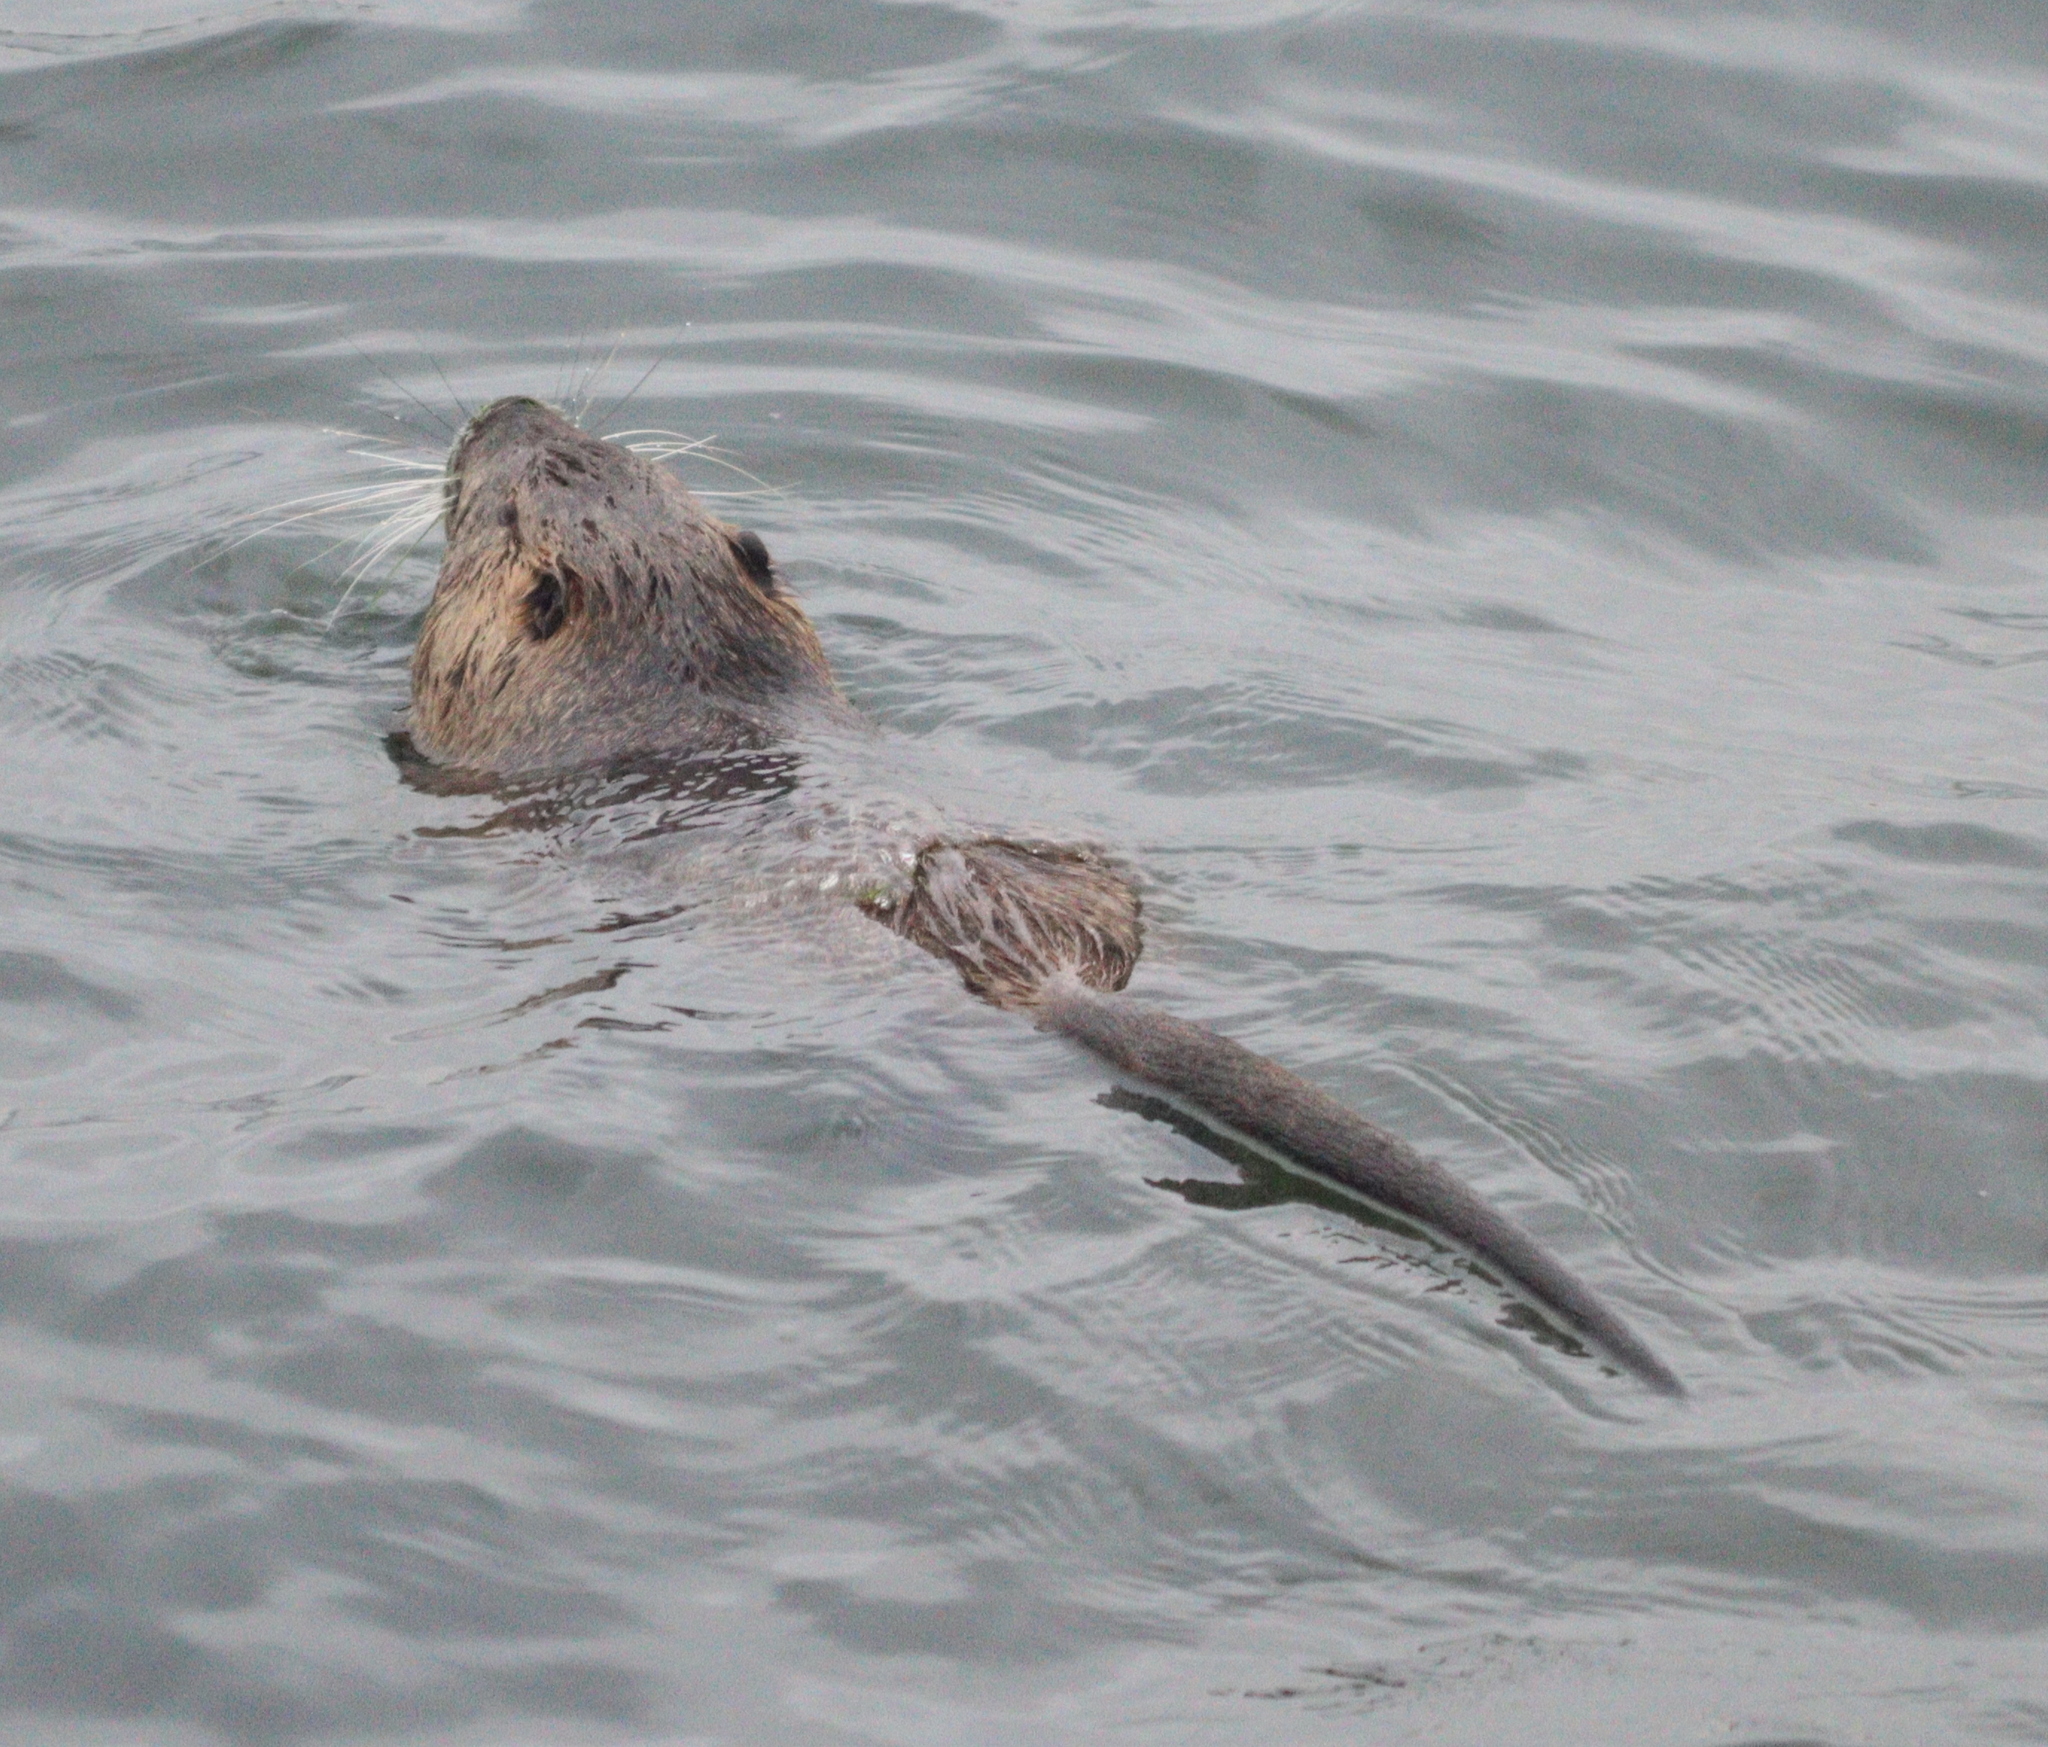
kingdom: Animalia
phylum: Chordata
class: Mammalia
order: Rodentia
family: Myocastoridae
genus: Myocastor
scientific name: Myocastor coypus
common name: Coypu
